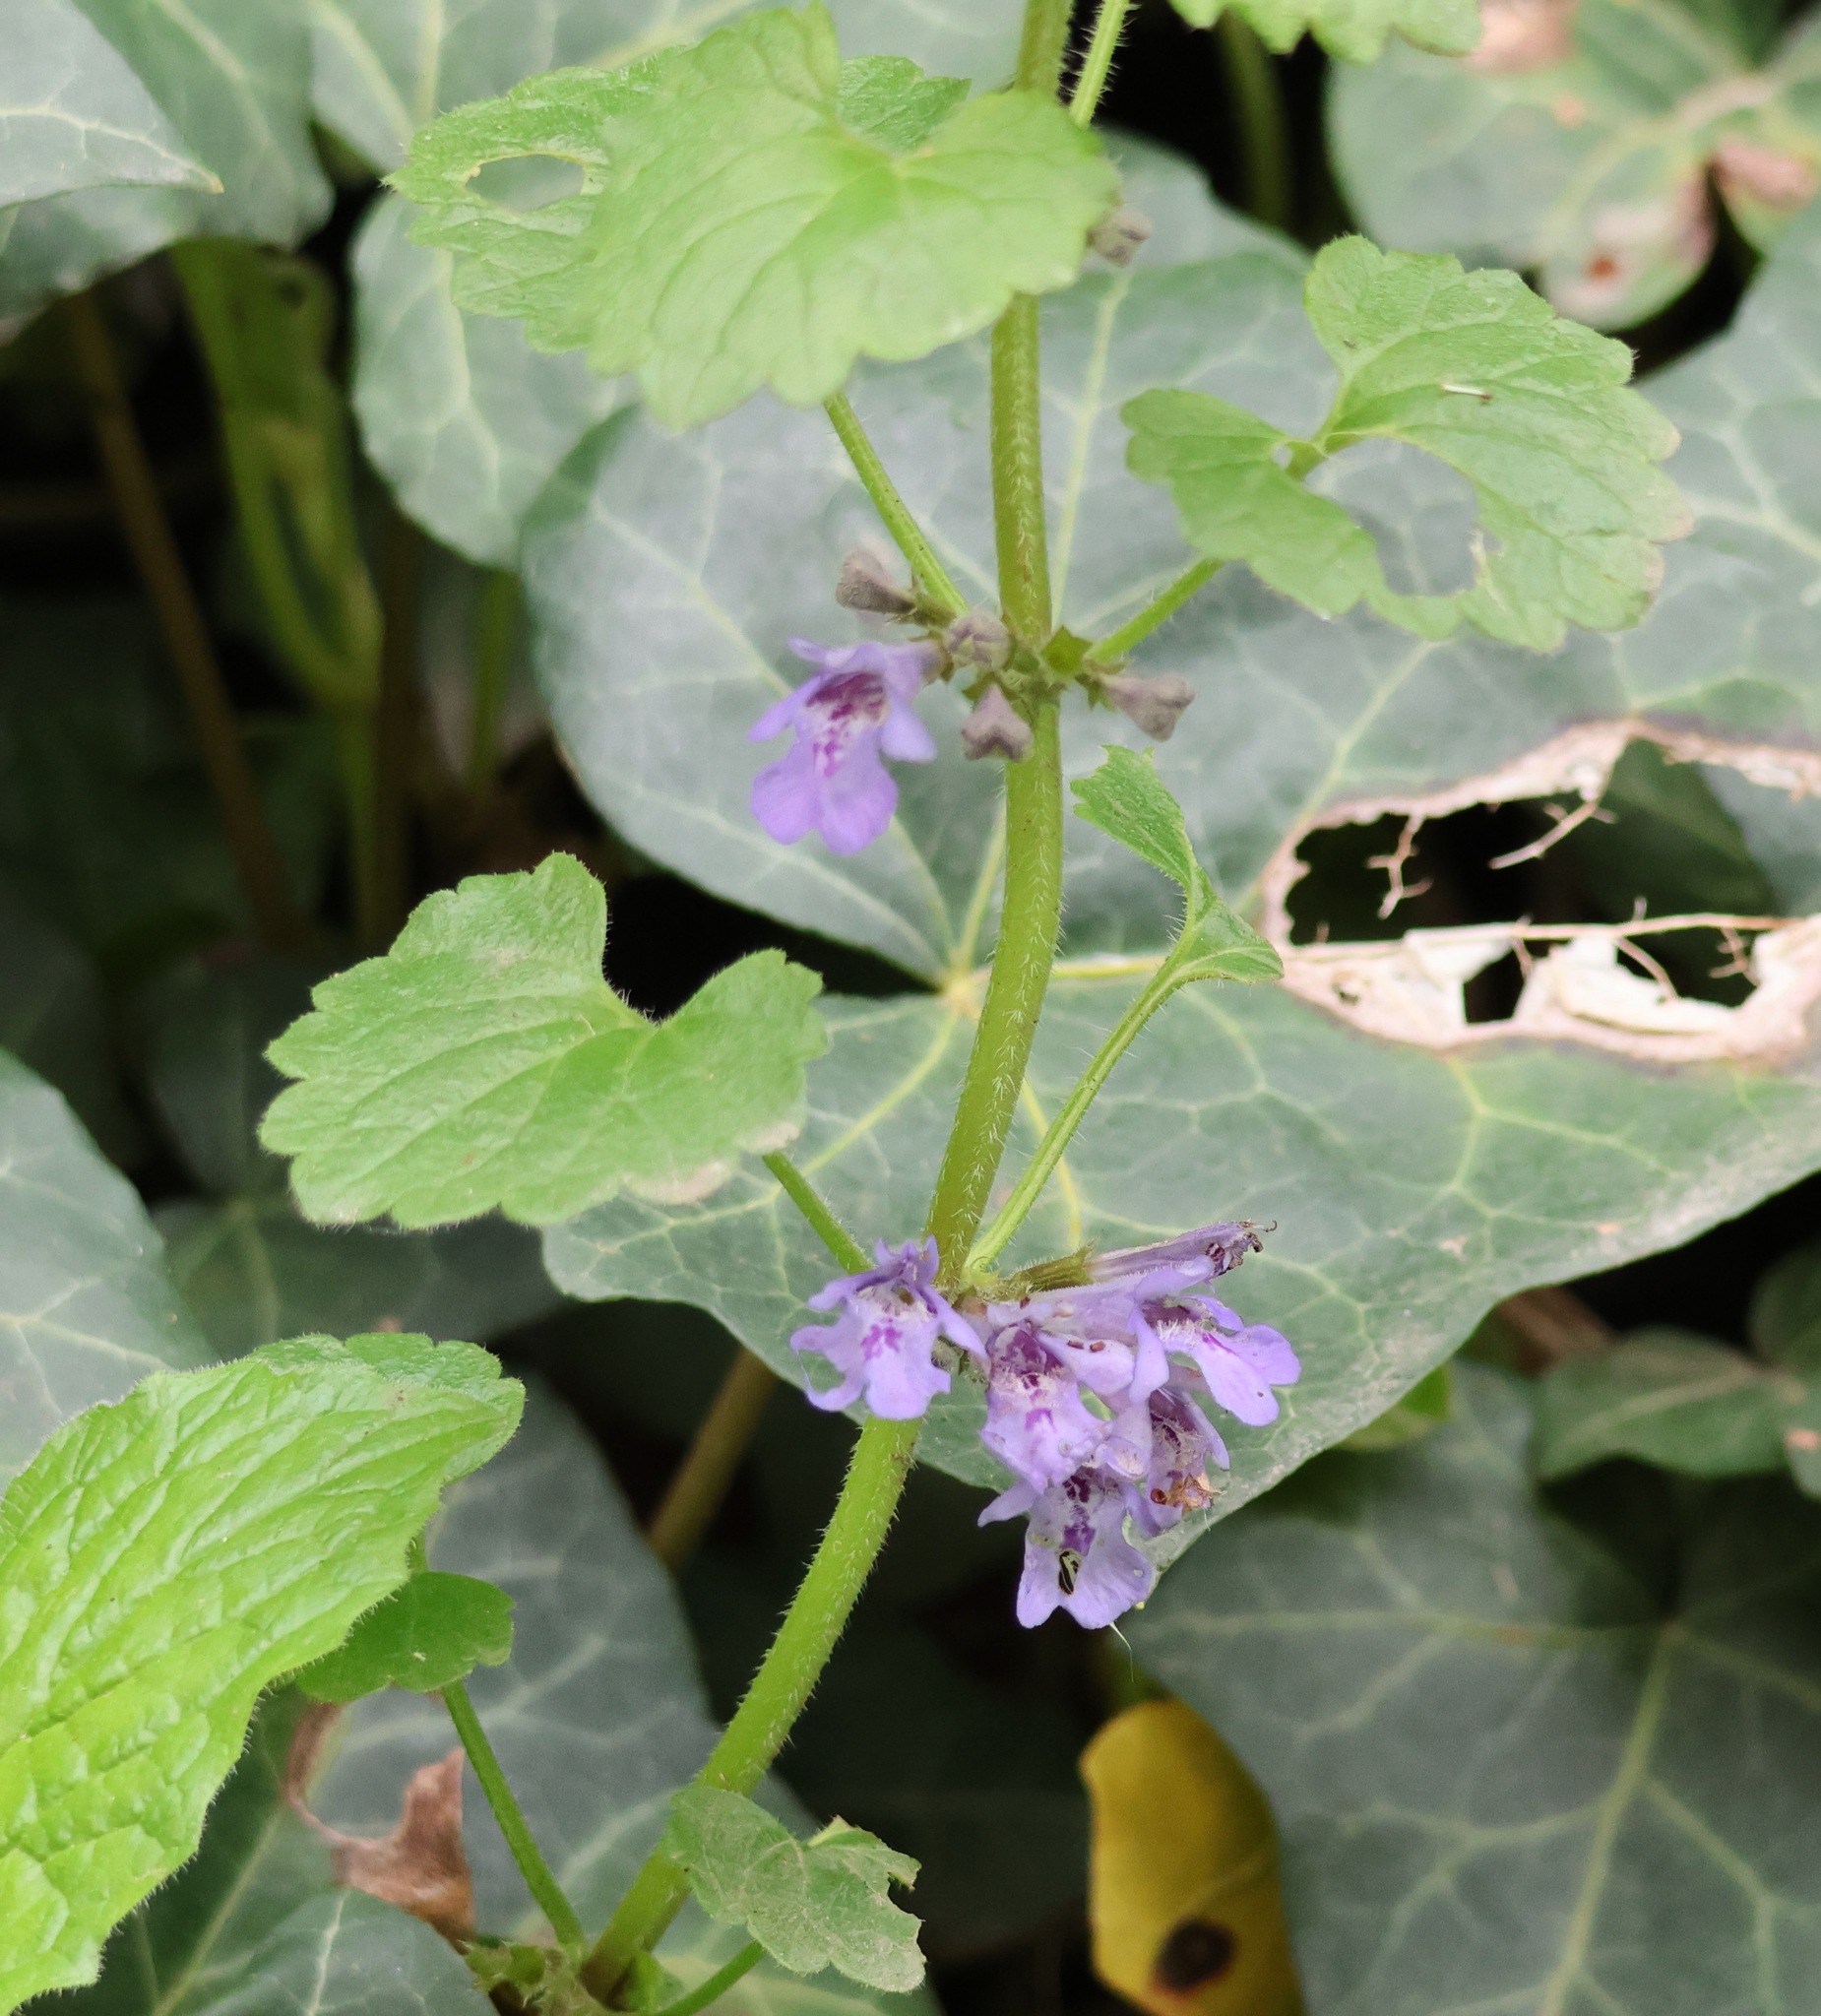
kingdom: Plantae
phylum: Tracheophyta
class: Magnoliopsida
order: Lamiales
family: Lamiaceae
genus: Glechoma
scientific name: Glechoma hederacea
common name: Ground ivy
